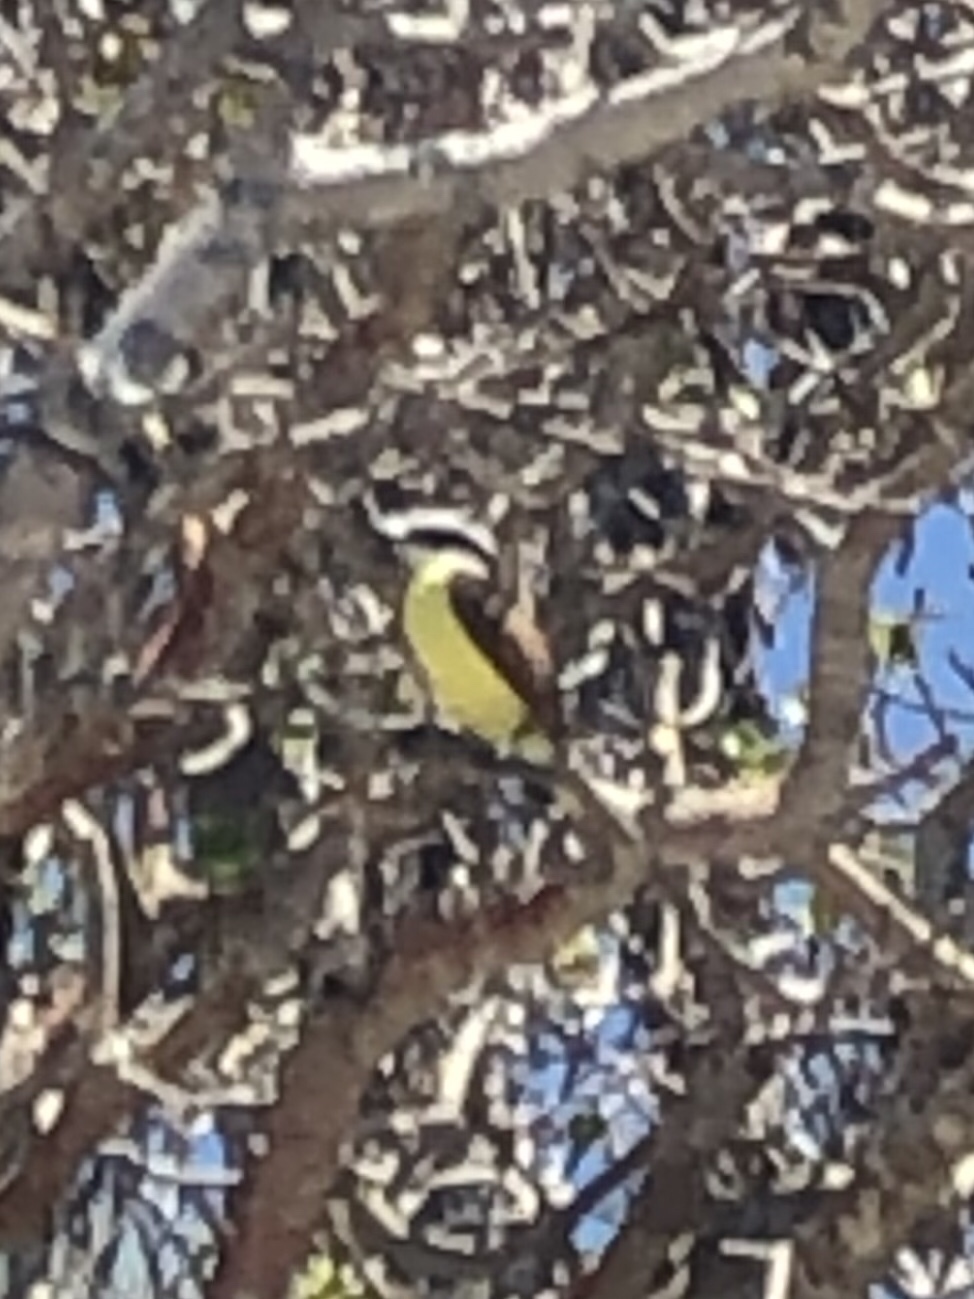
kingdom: Animalia
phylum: Chordata
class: Aves
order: Passeriformes
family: Tyrannidae
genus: Pitangus
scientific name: Pitangus sulphuratus
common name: Great kiskadee
